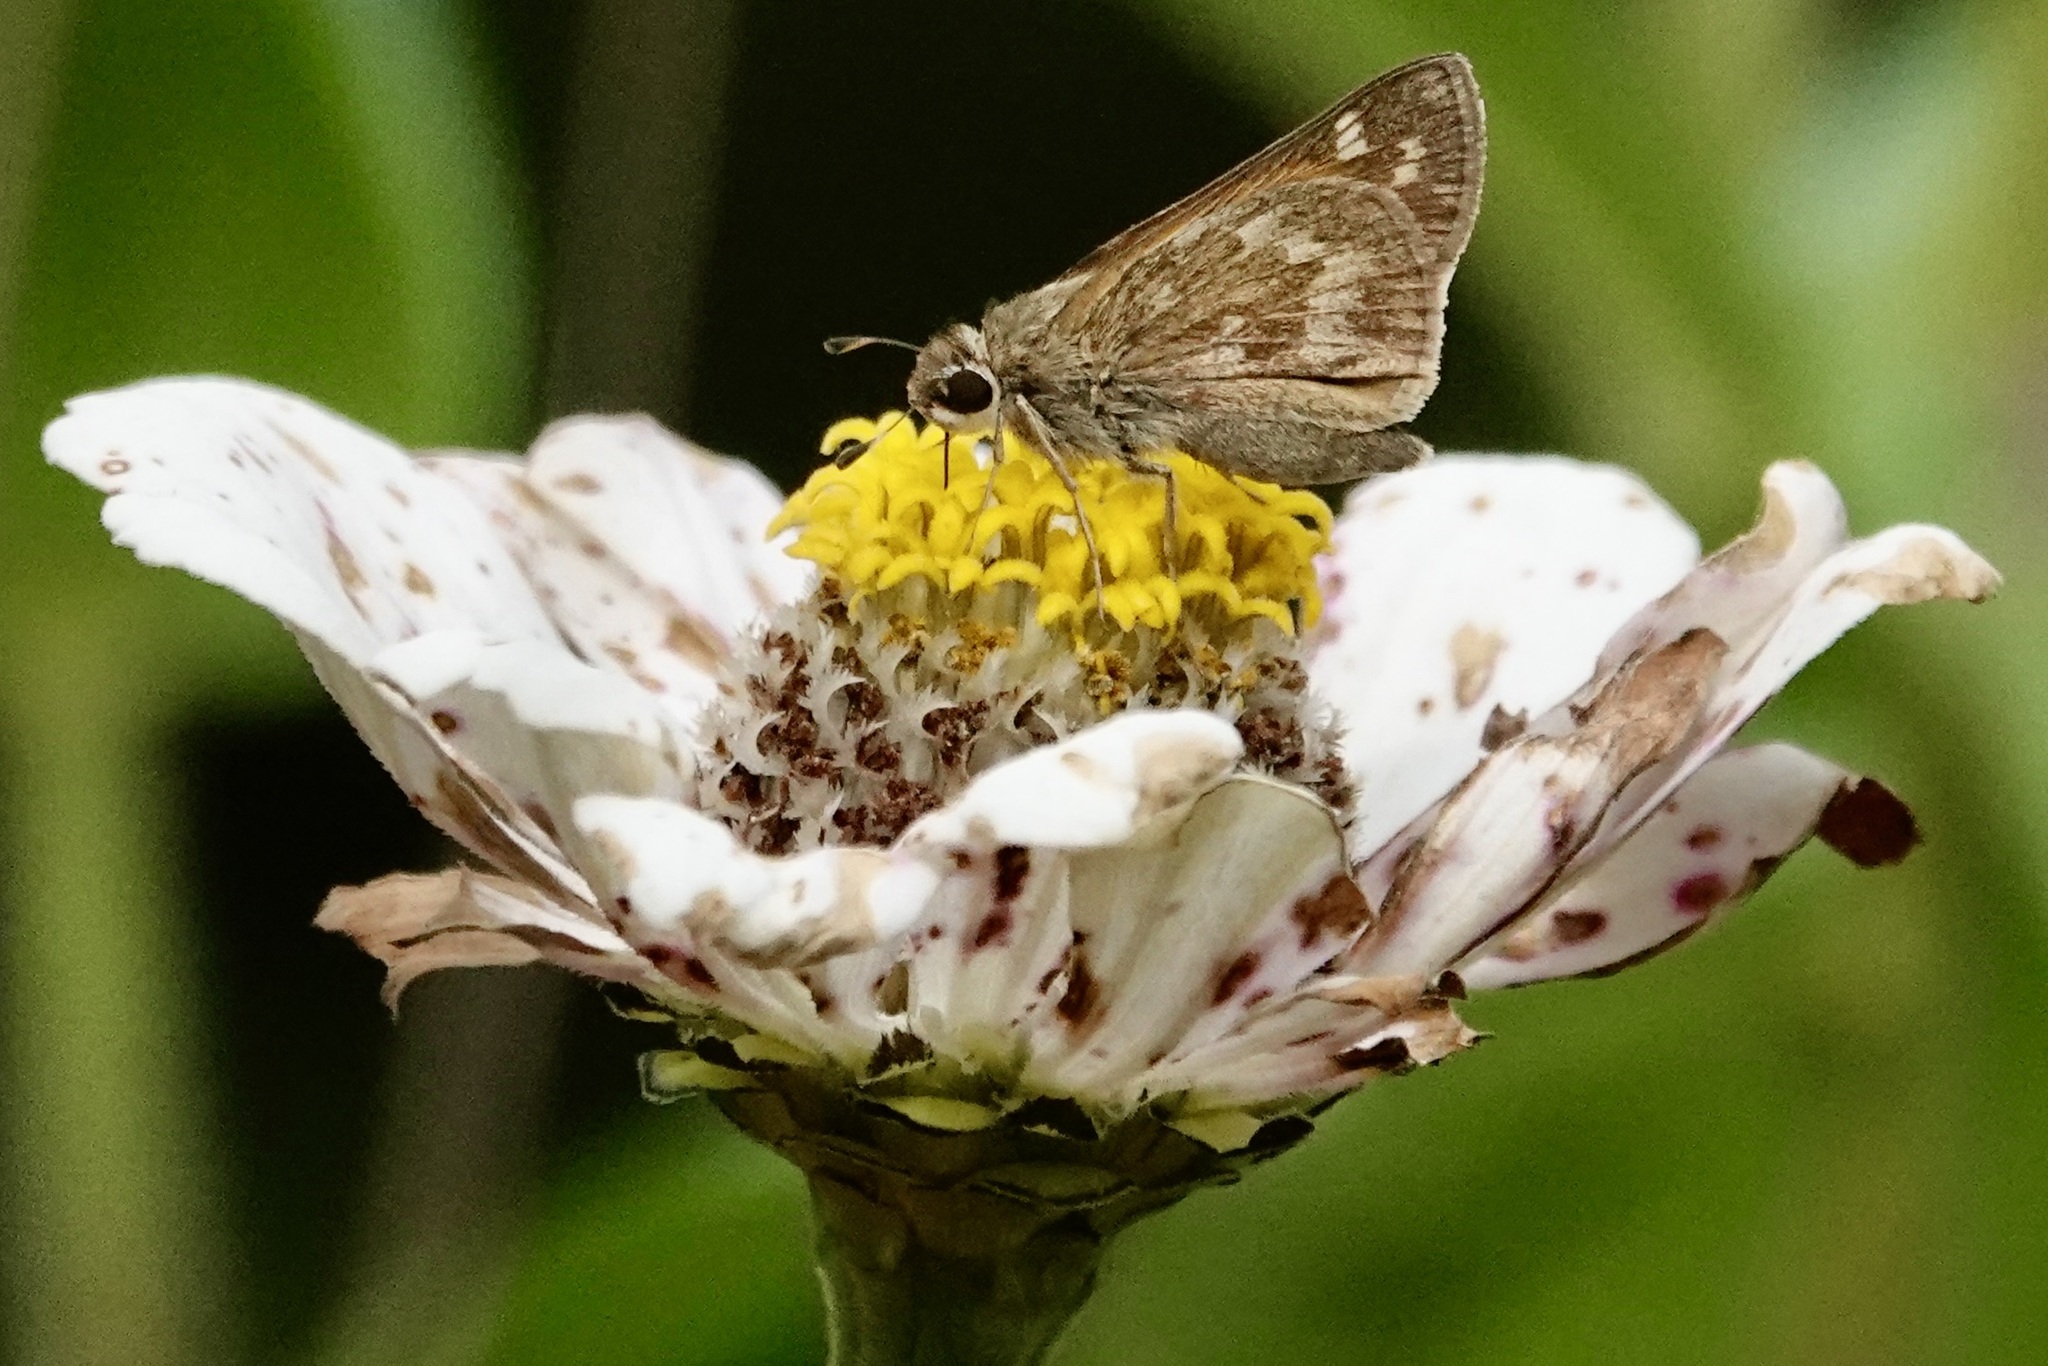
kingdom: Animalia
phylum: Arthropoda
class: Insecta
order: Lepidoptera
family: Hesperiidae
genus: Atalopedes
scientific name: Atalopedes
